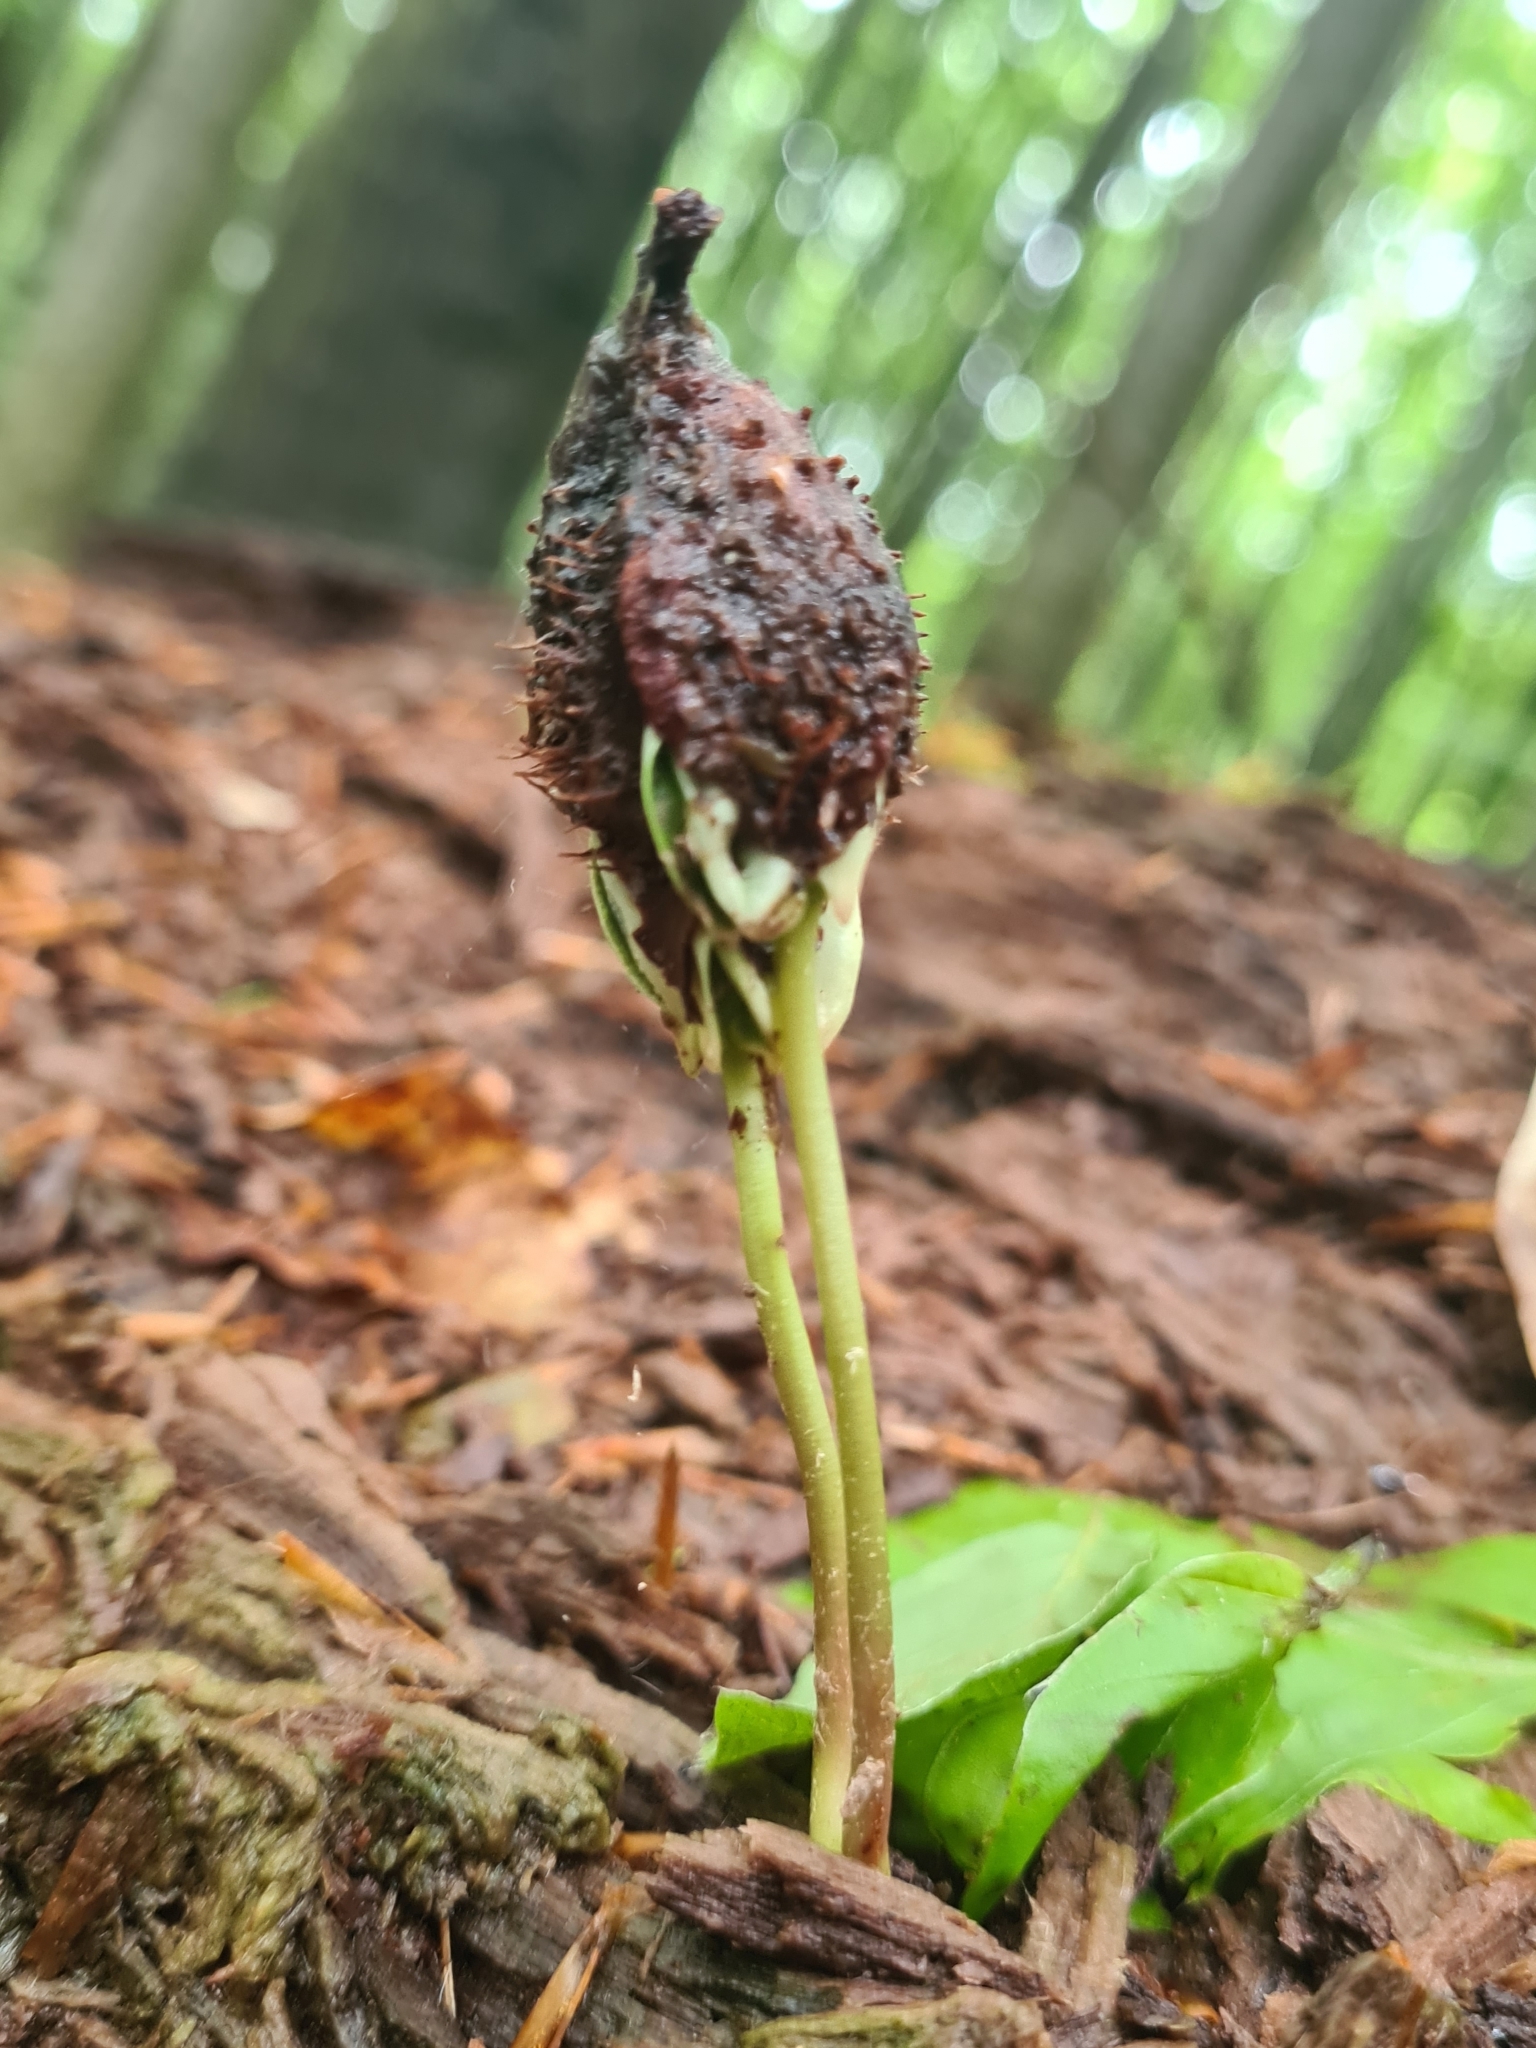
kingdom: Plantae
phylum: Tracheophyta
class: Magnoliopsida
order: Fagales
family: Fagaceae
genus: Fagus
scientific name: Fagus sylvatica
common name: Beech
